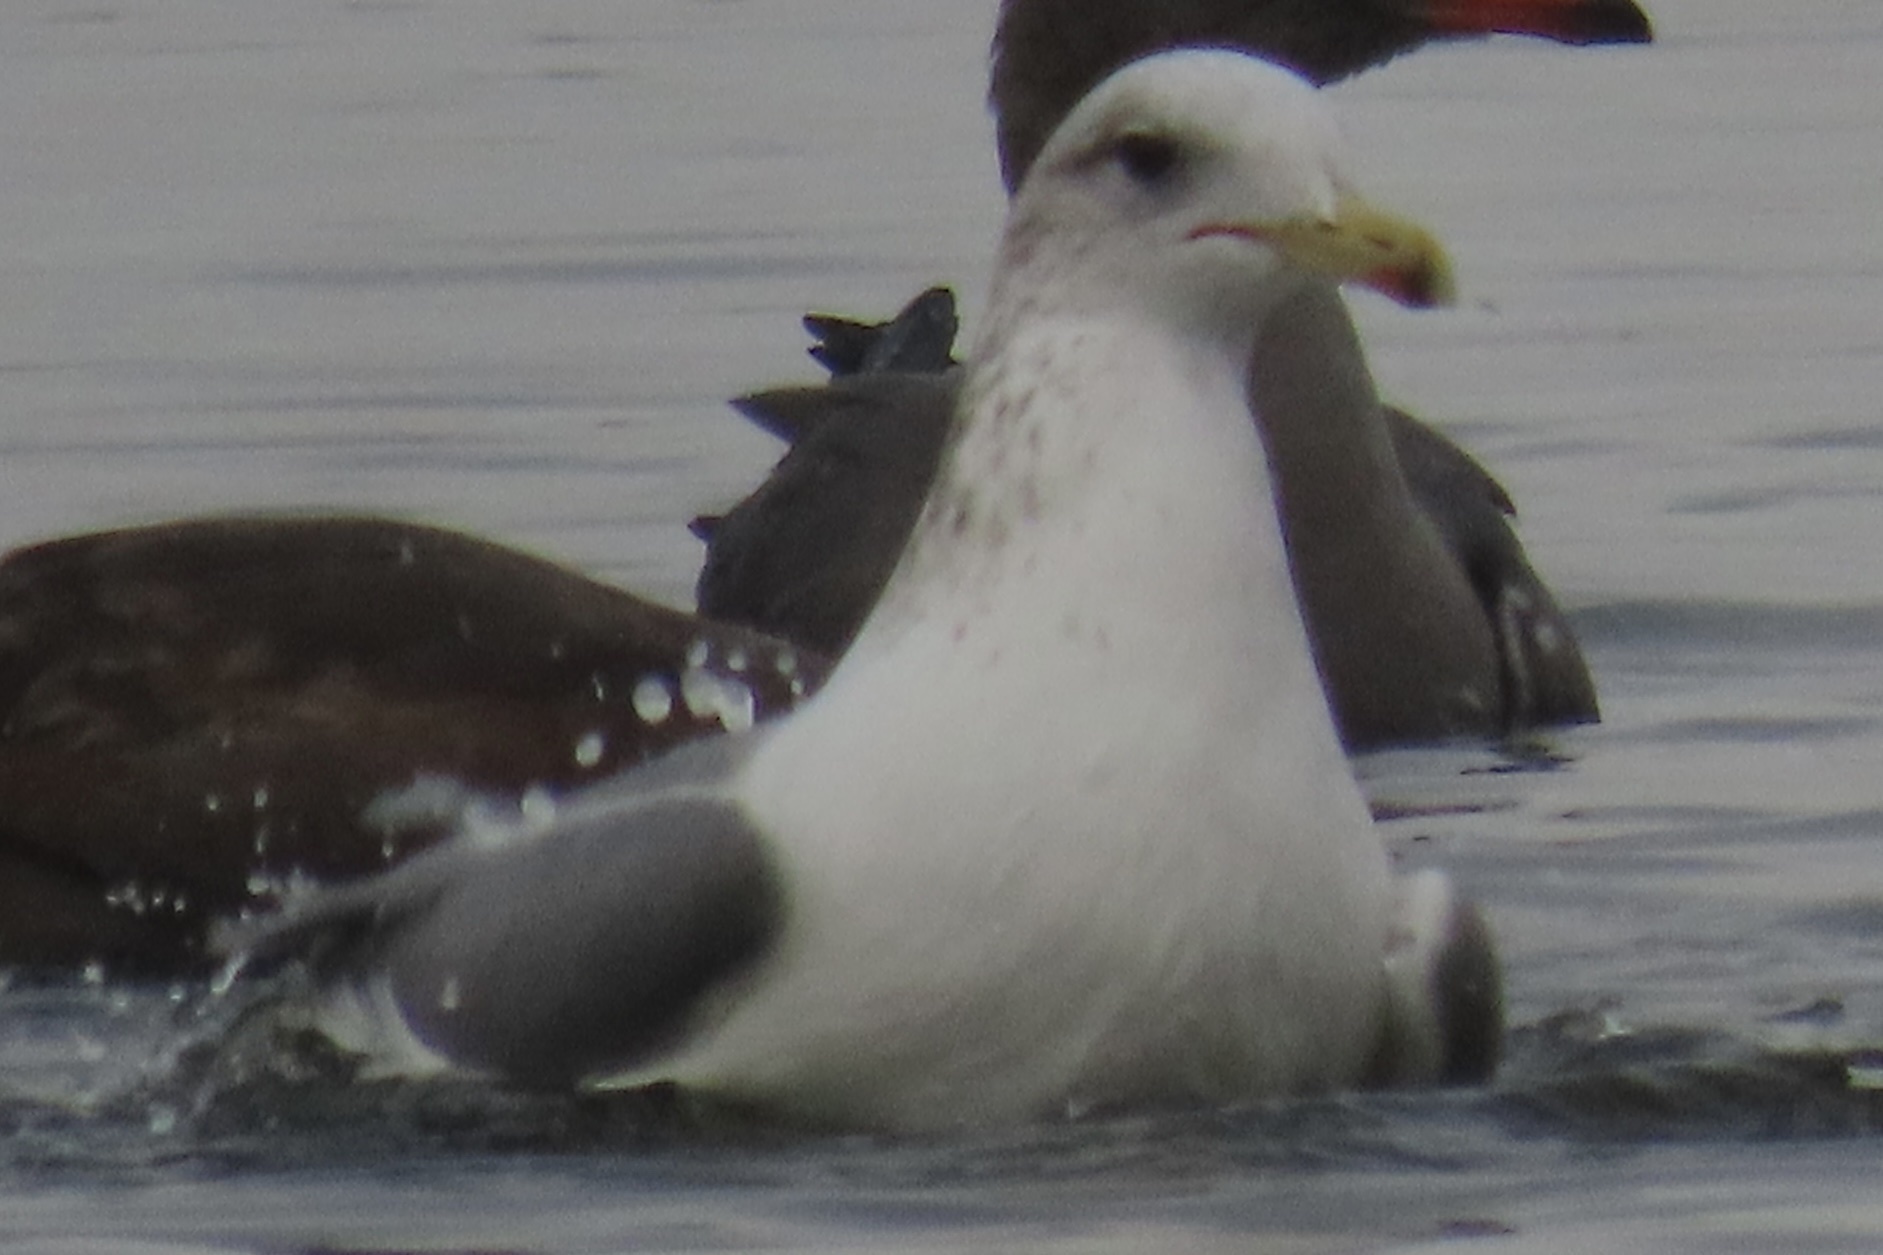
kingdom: Animalia
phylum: Chordata
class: Aves
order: Charadriiformes
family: Laridae
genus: Larus
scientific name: Larus californicus
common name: California gull
